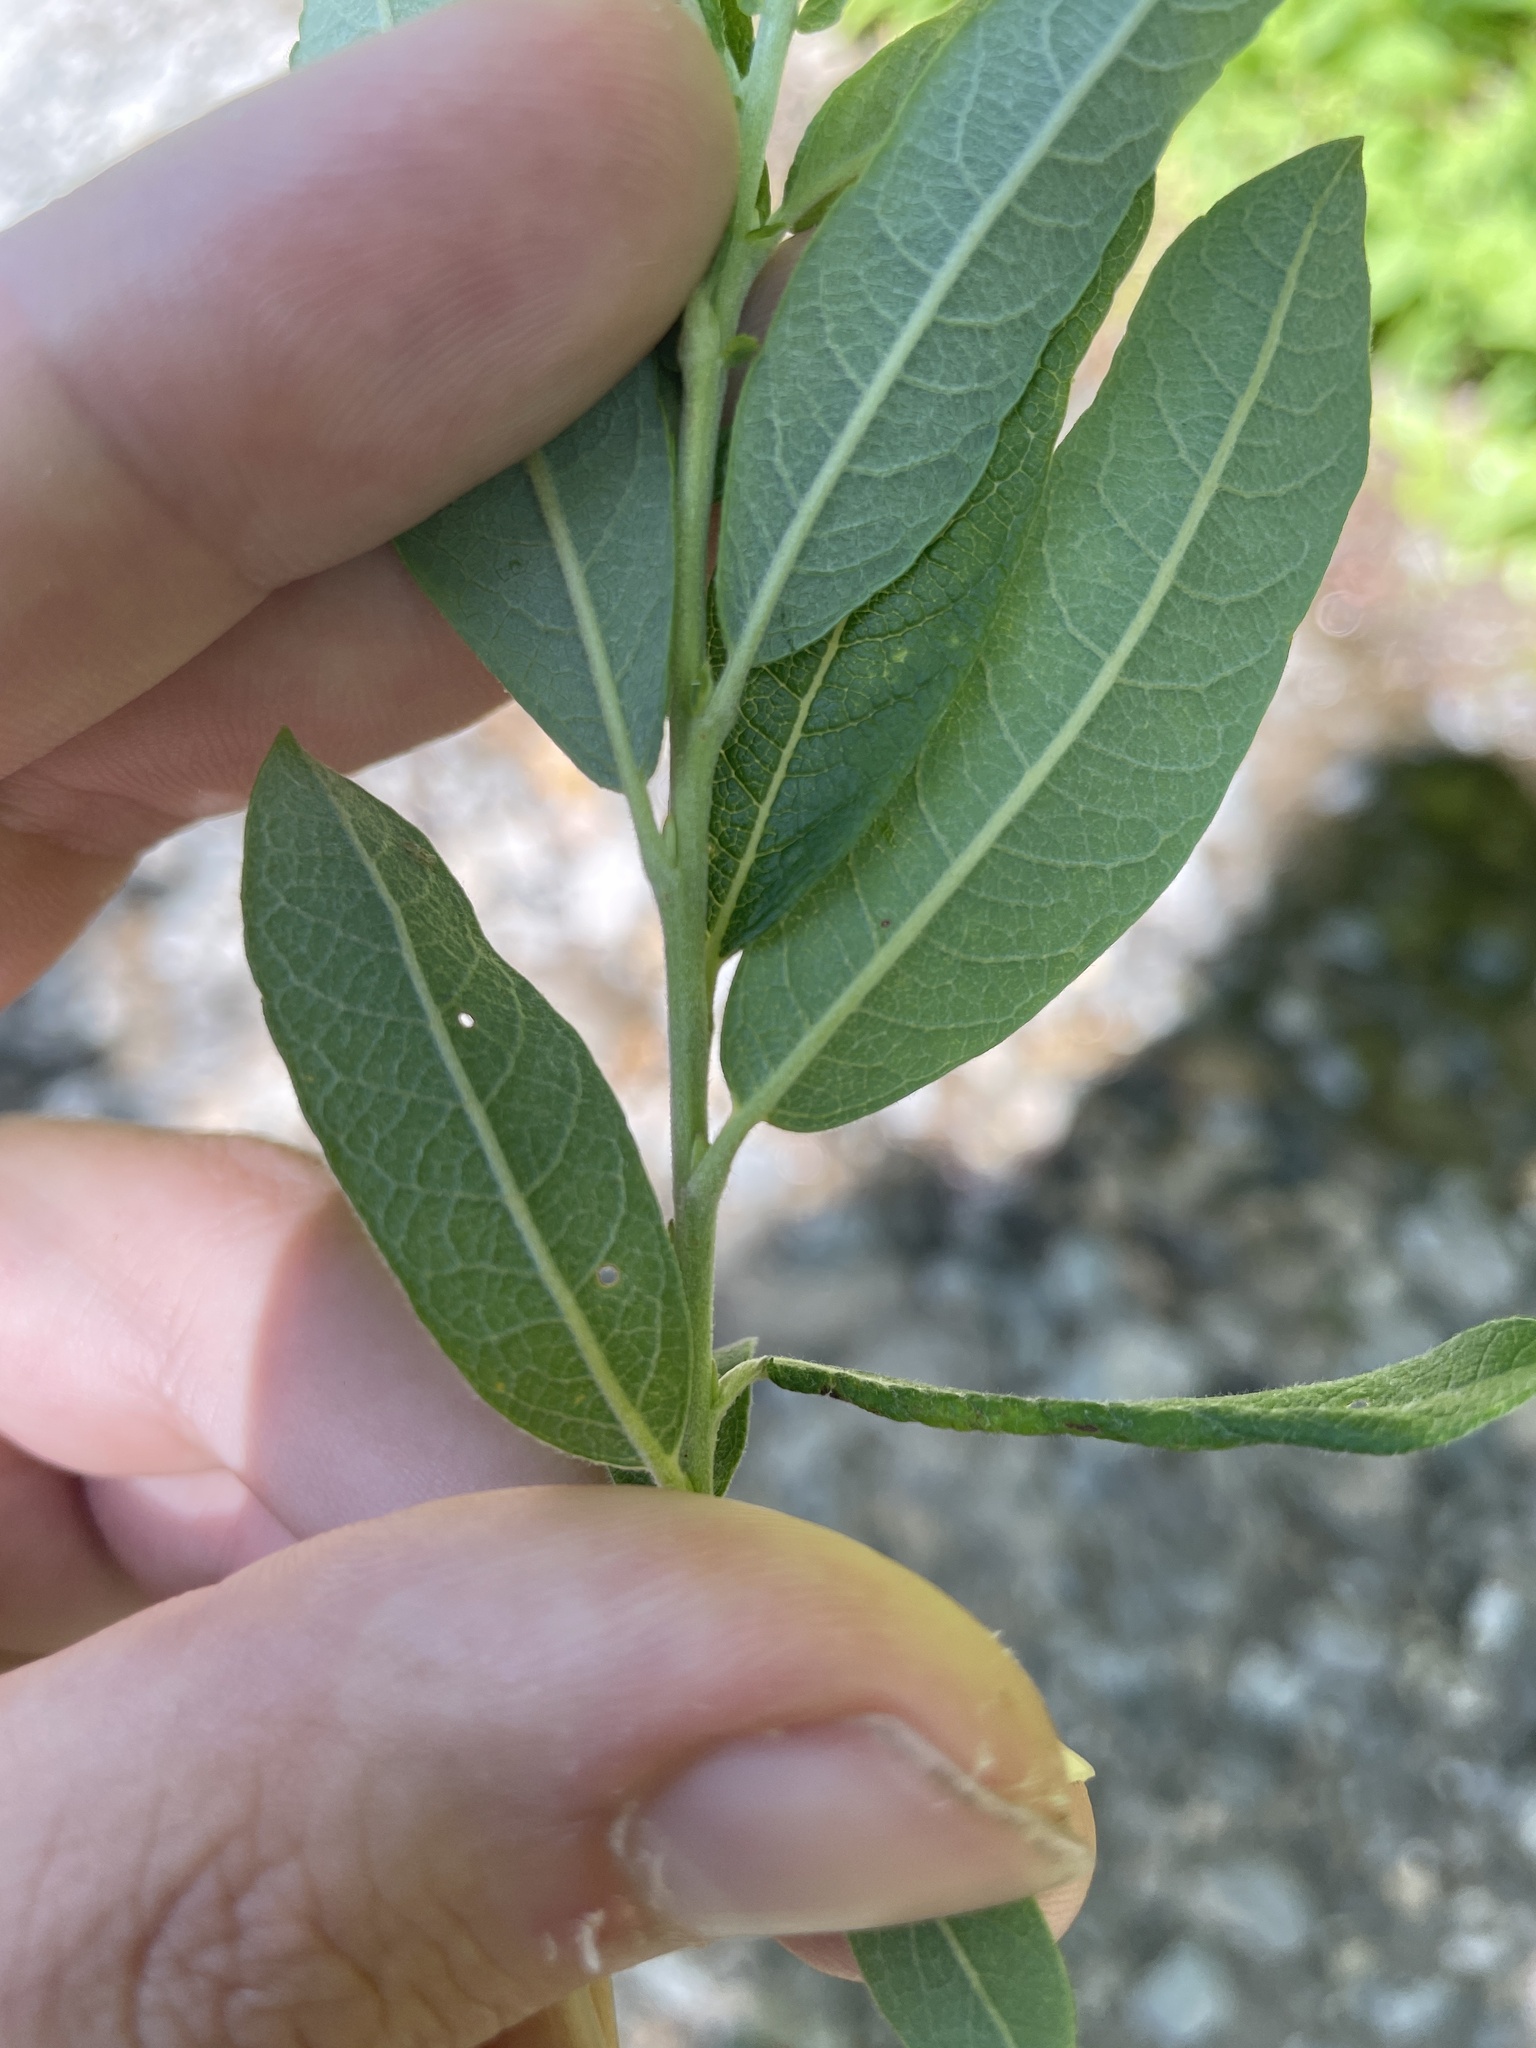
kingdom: Plantae
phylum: Tracheophyta
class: Magnoliopsida
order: Malpighiales
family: Salicaceae
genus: Salix
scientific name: Salix humilis
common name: Prairie willow
